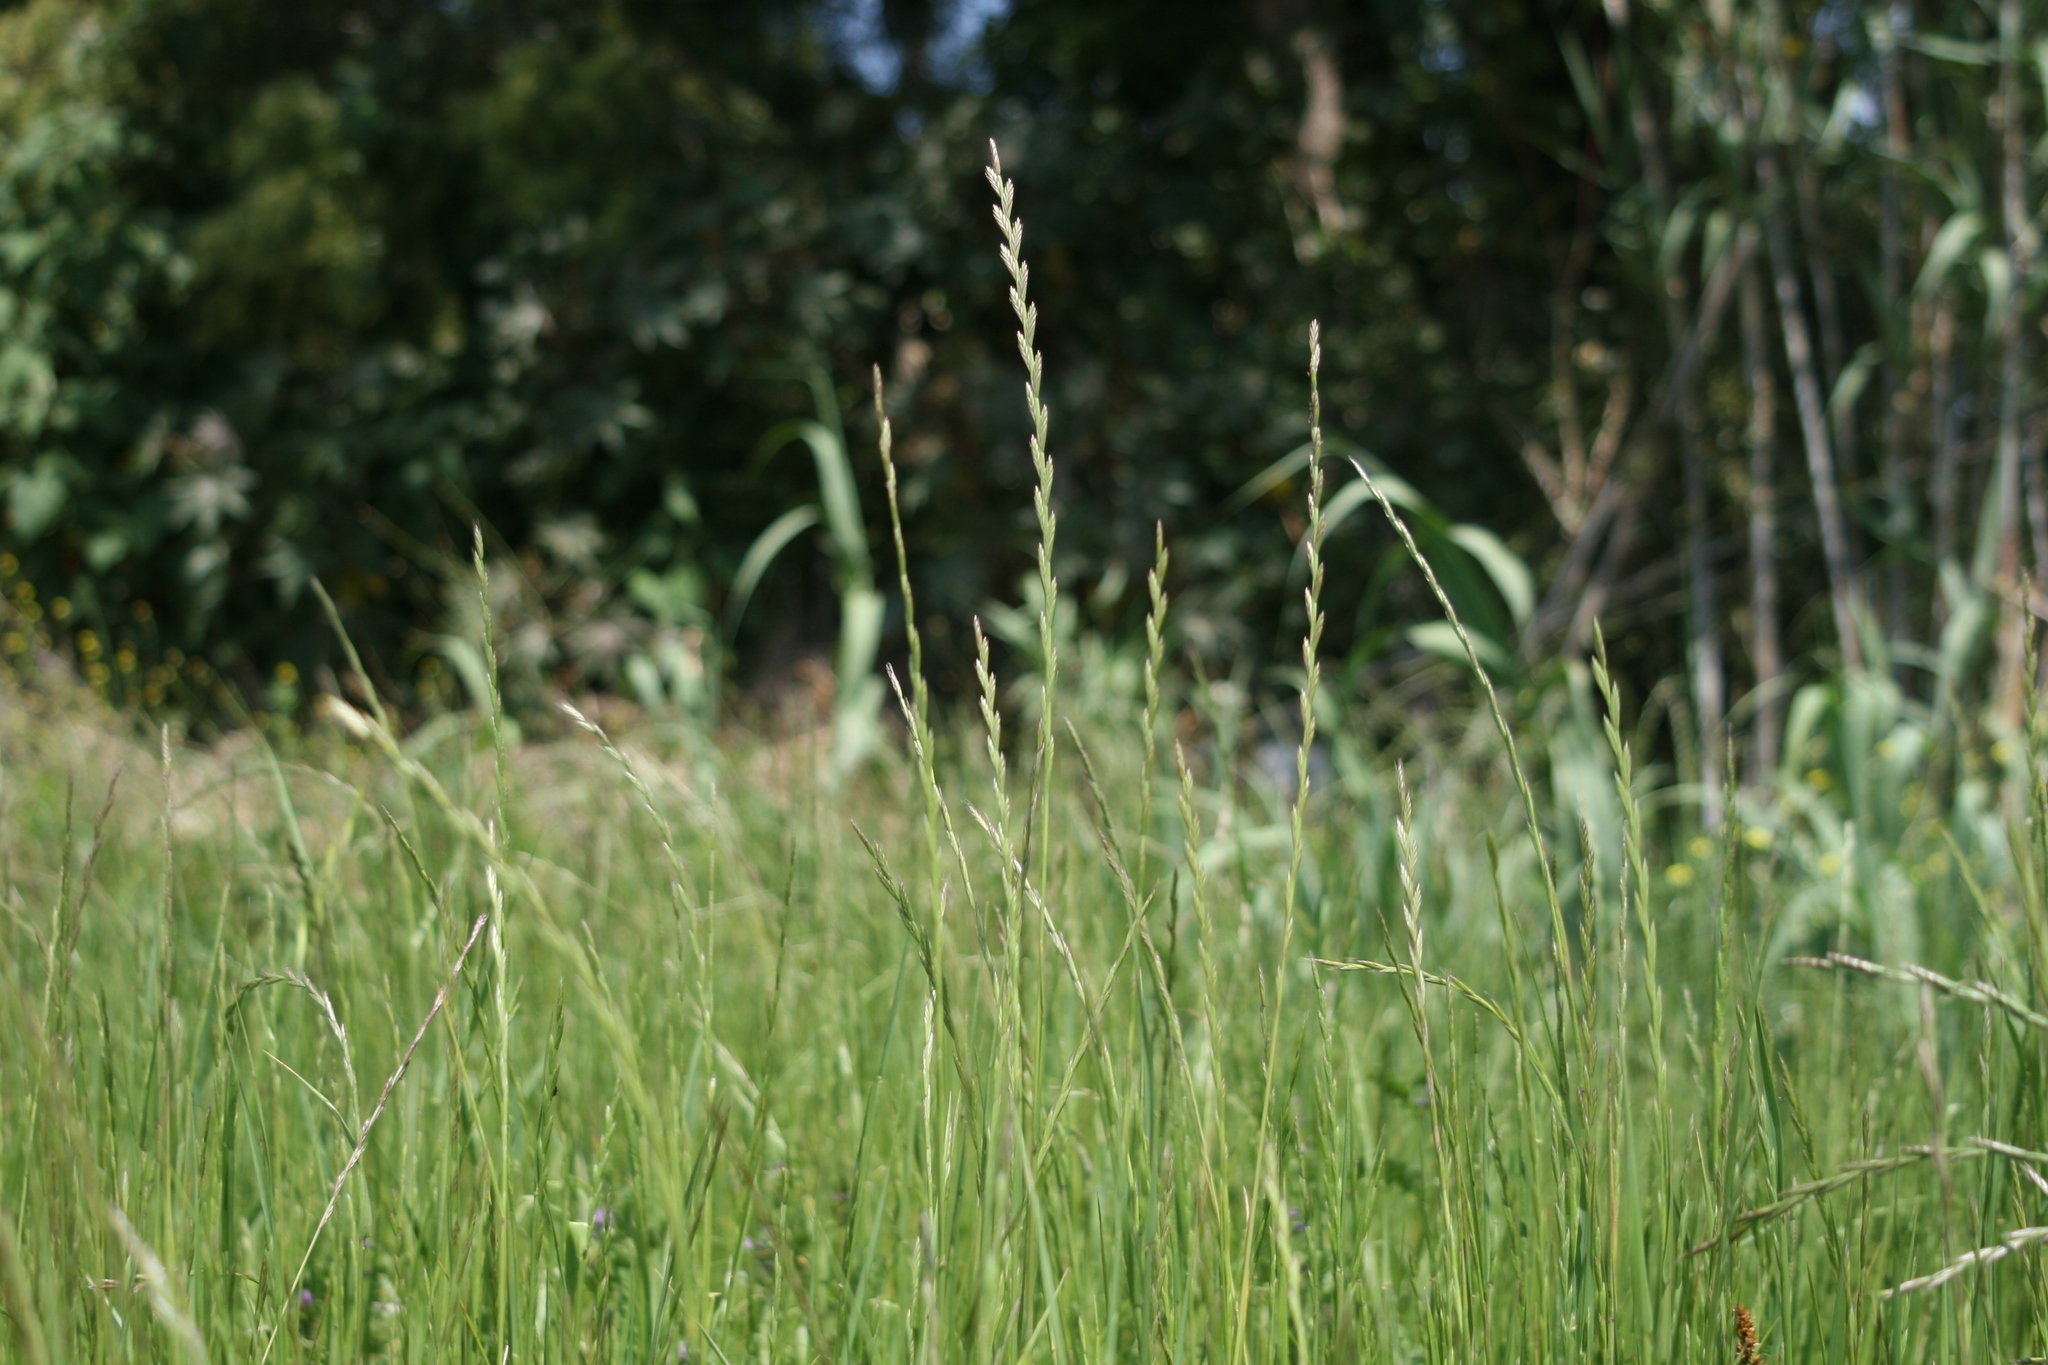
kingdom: Plantae
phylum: Tracheophyta
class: Liliopsida
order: Poales
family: Poaceae
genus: Lolium
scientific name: Lolium multiflorum
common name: Annual ryegrass
